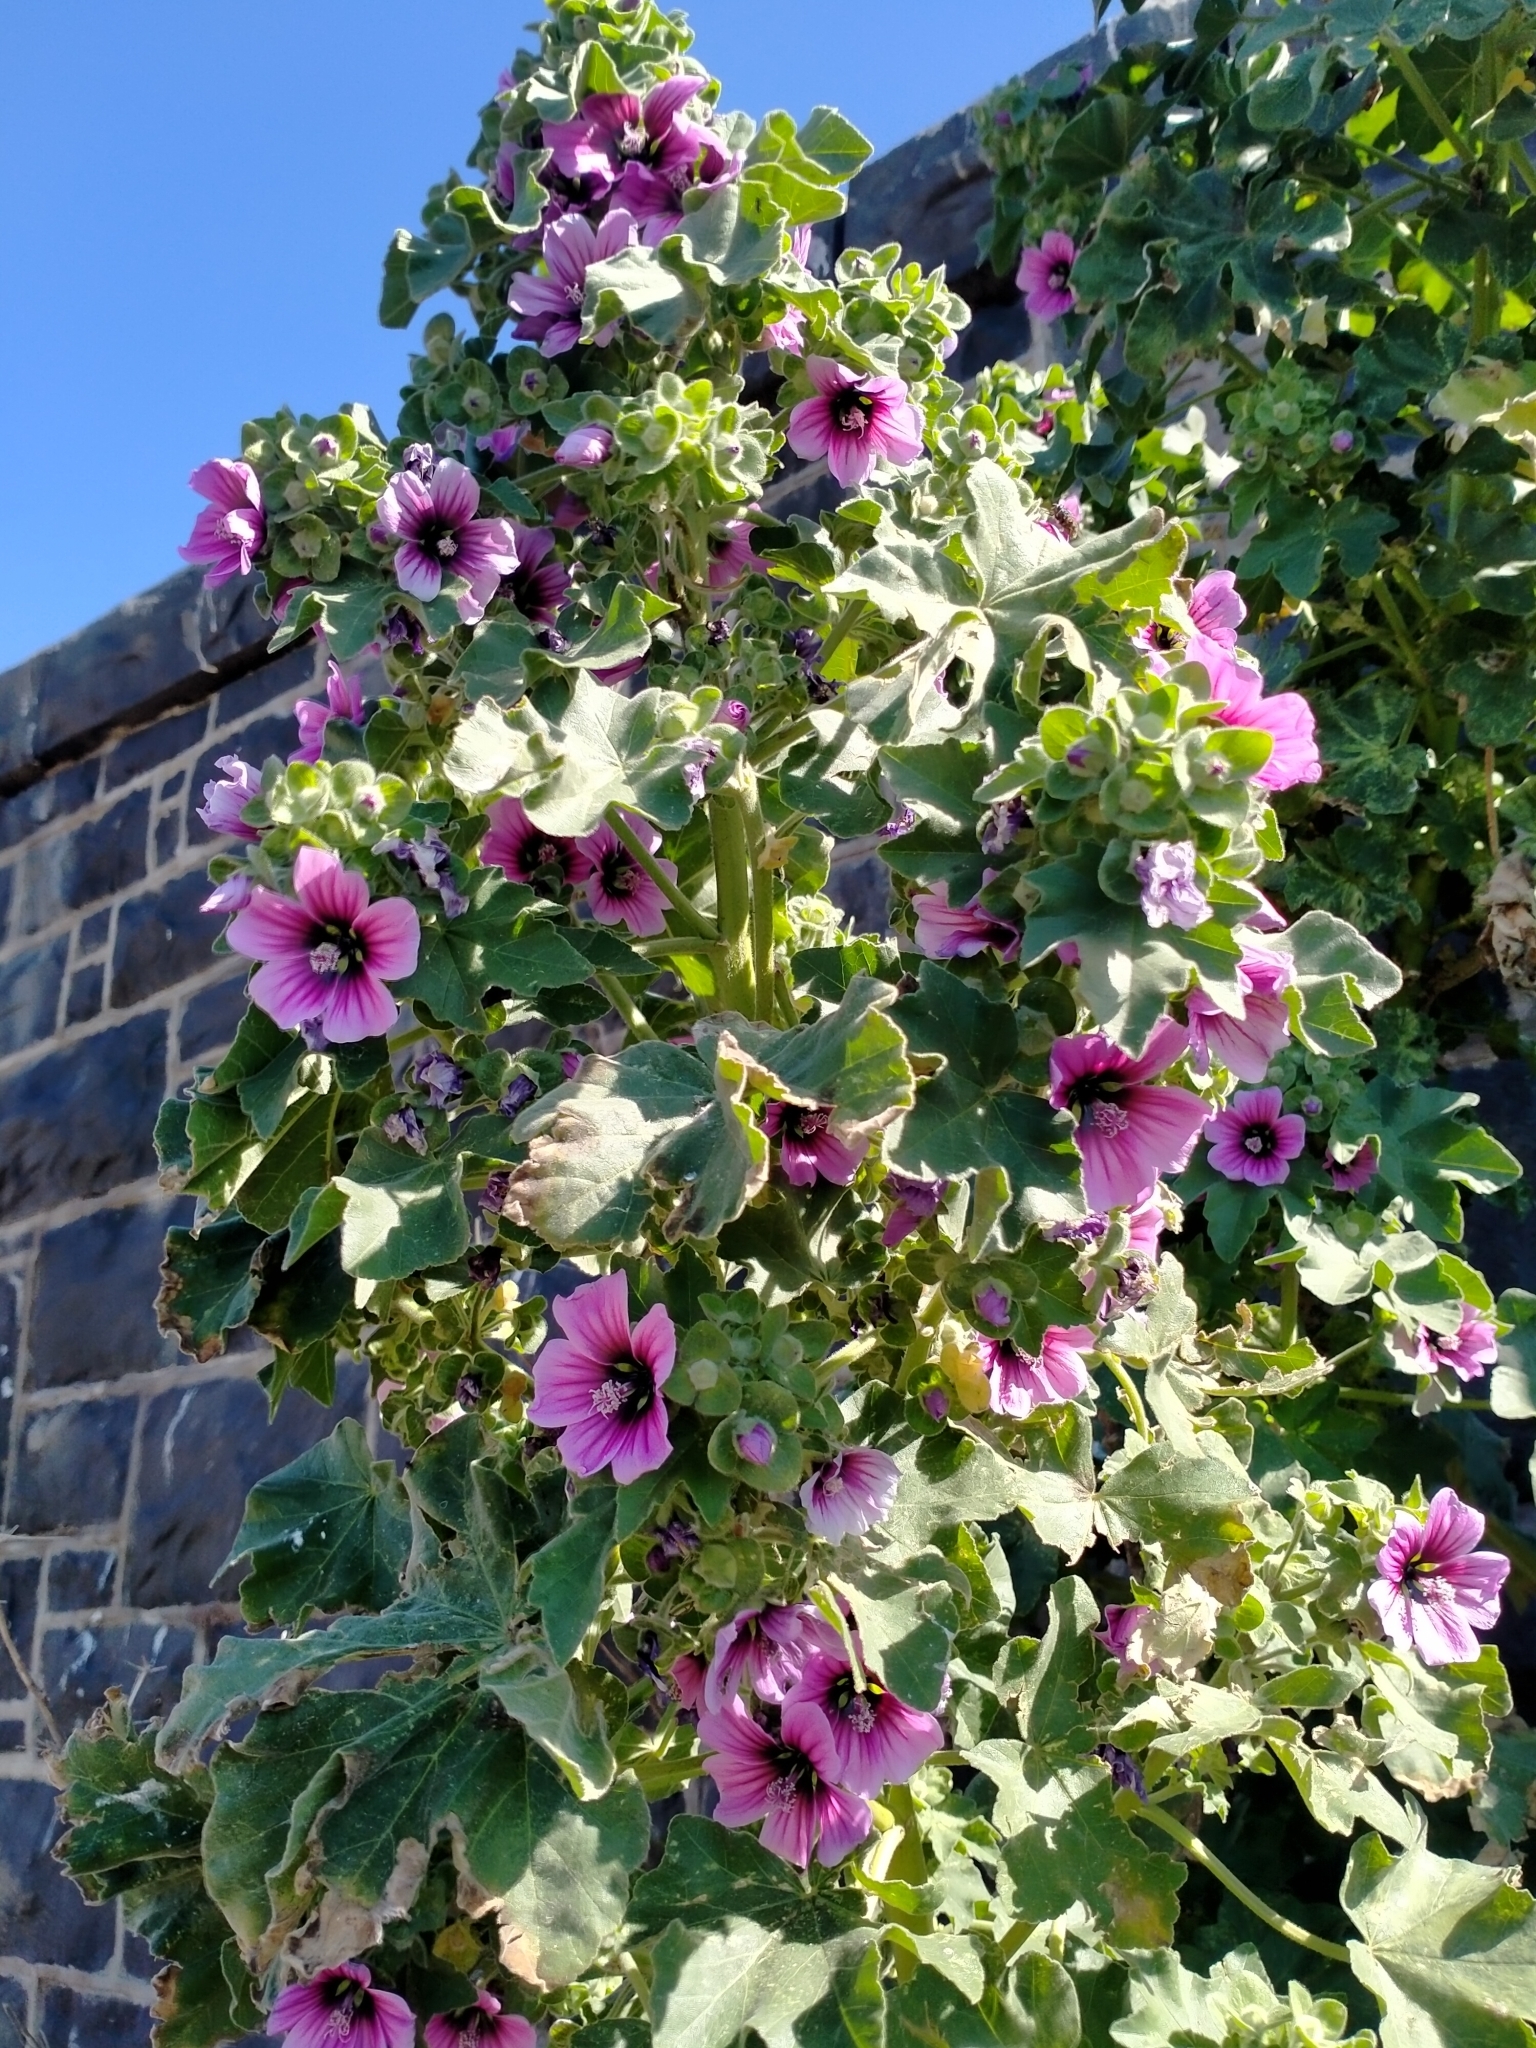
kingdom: Plantae
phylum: Tracheophyta
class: Magnoliopsida
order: Malvales
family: Malvaceae
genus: Malva
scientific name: Malva arborea
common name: Tree mallow
